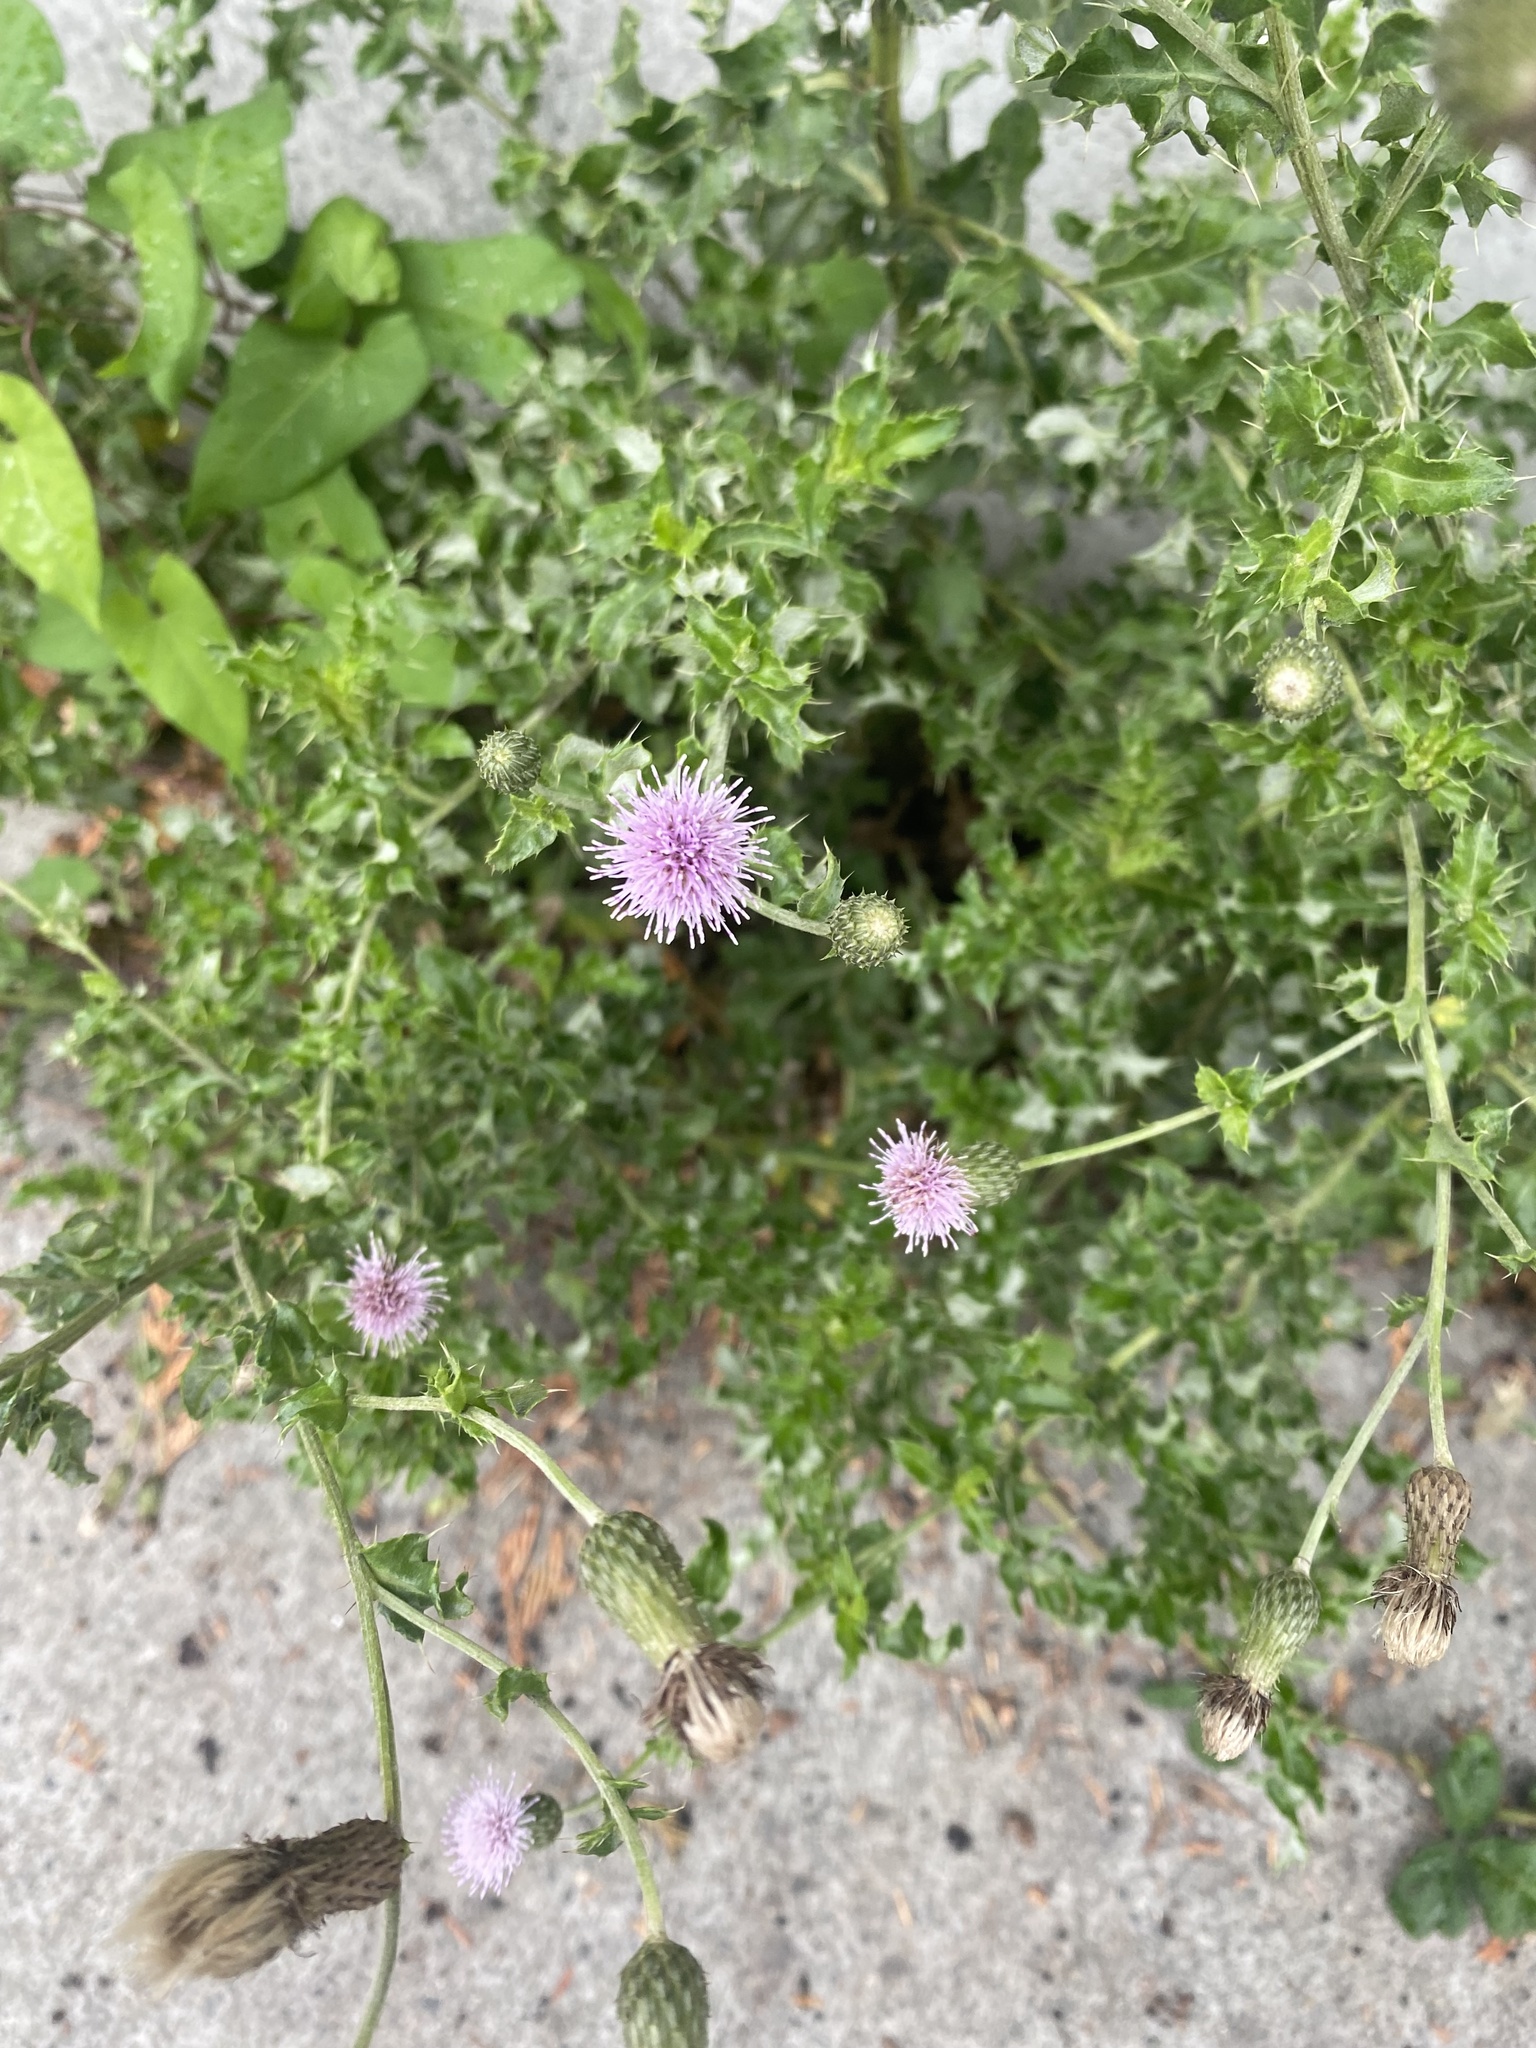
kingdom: Plantae
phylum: Tracheophyta
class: Magnoliopsida
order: Asterales
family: Asteraceae
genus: Cirsium
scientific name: Cirsium arvense
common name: Creeping thistle
